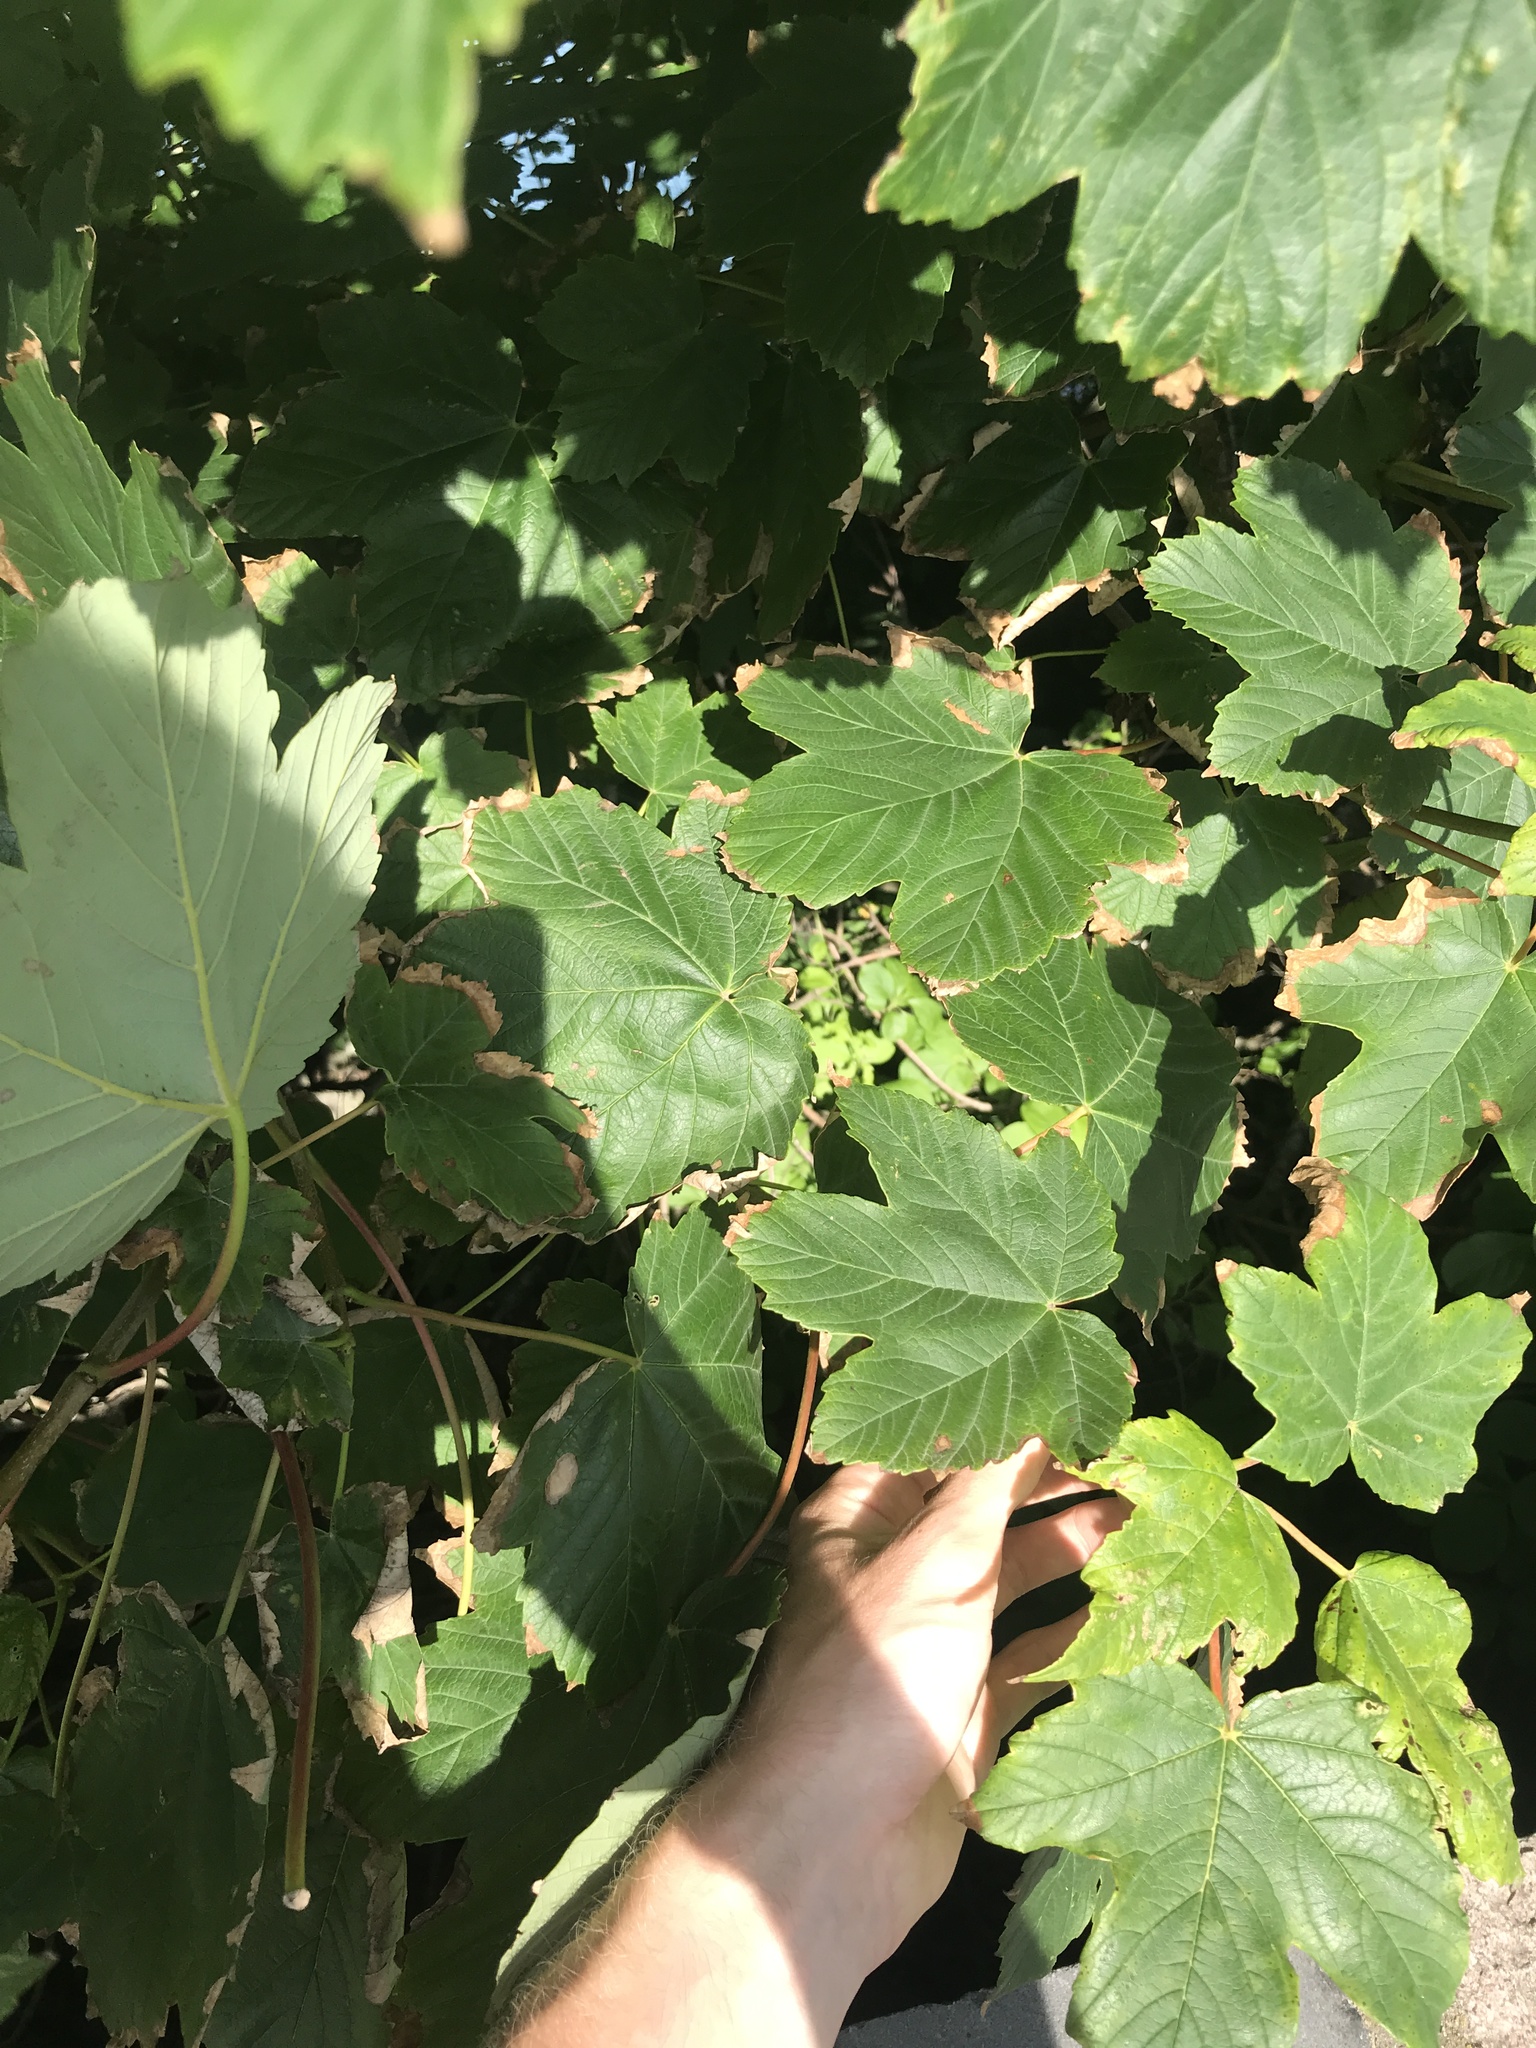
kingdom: Plantae
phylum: Tracheophyta
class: Magnoliopsida
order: Sapindales
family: Sapindaceae
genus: Acer
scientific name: Acer pseudoplatanus
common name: Sycamore
